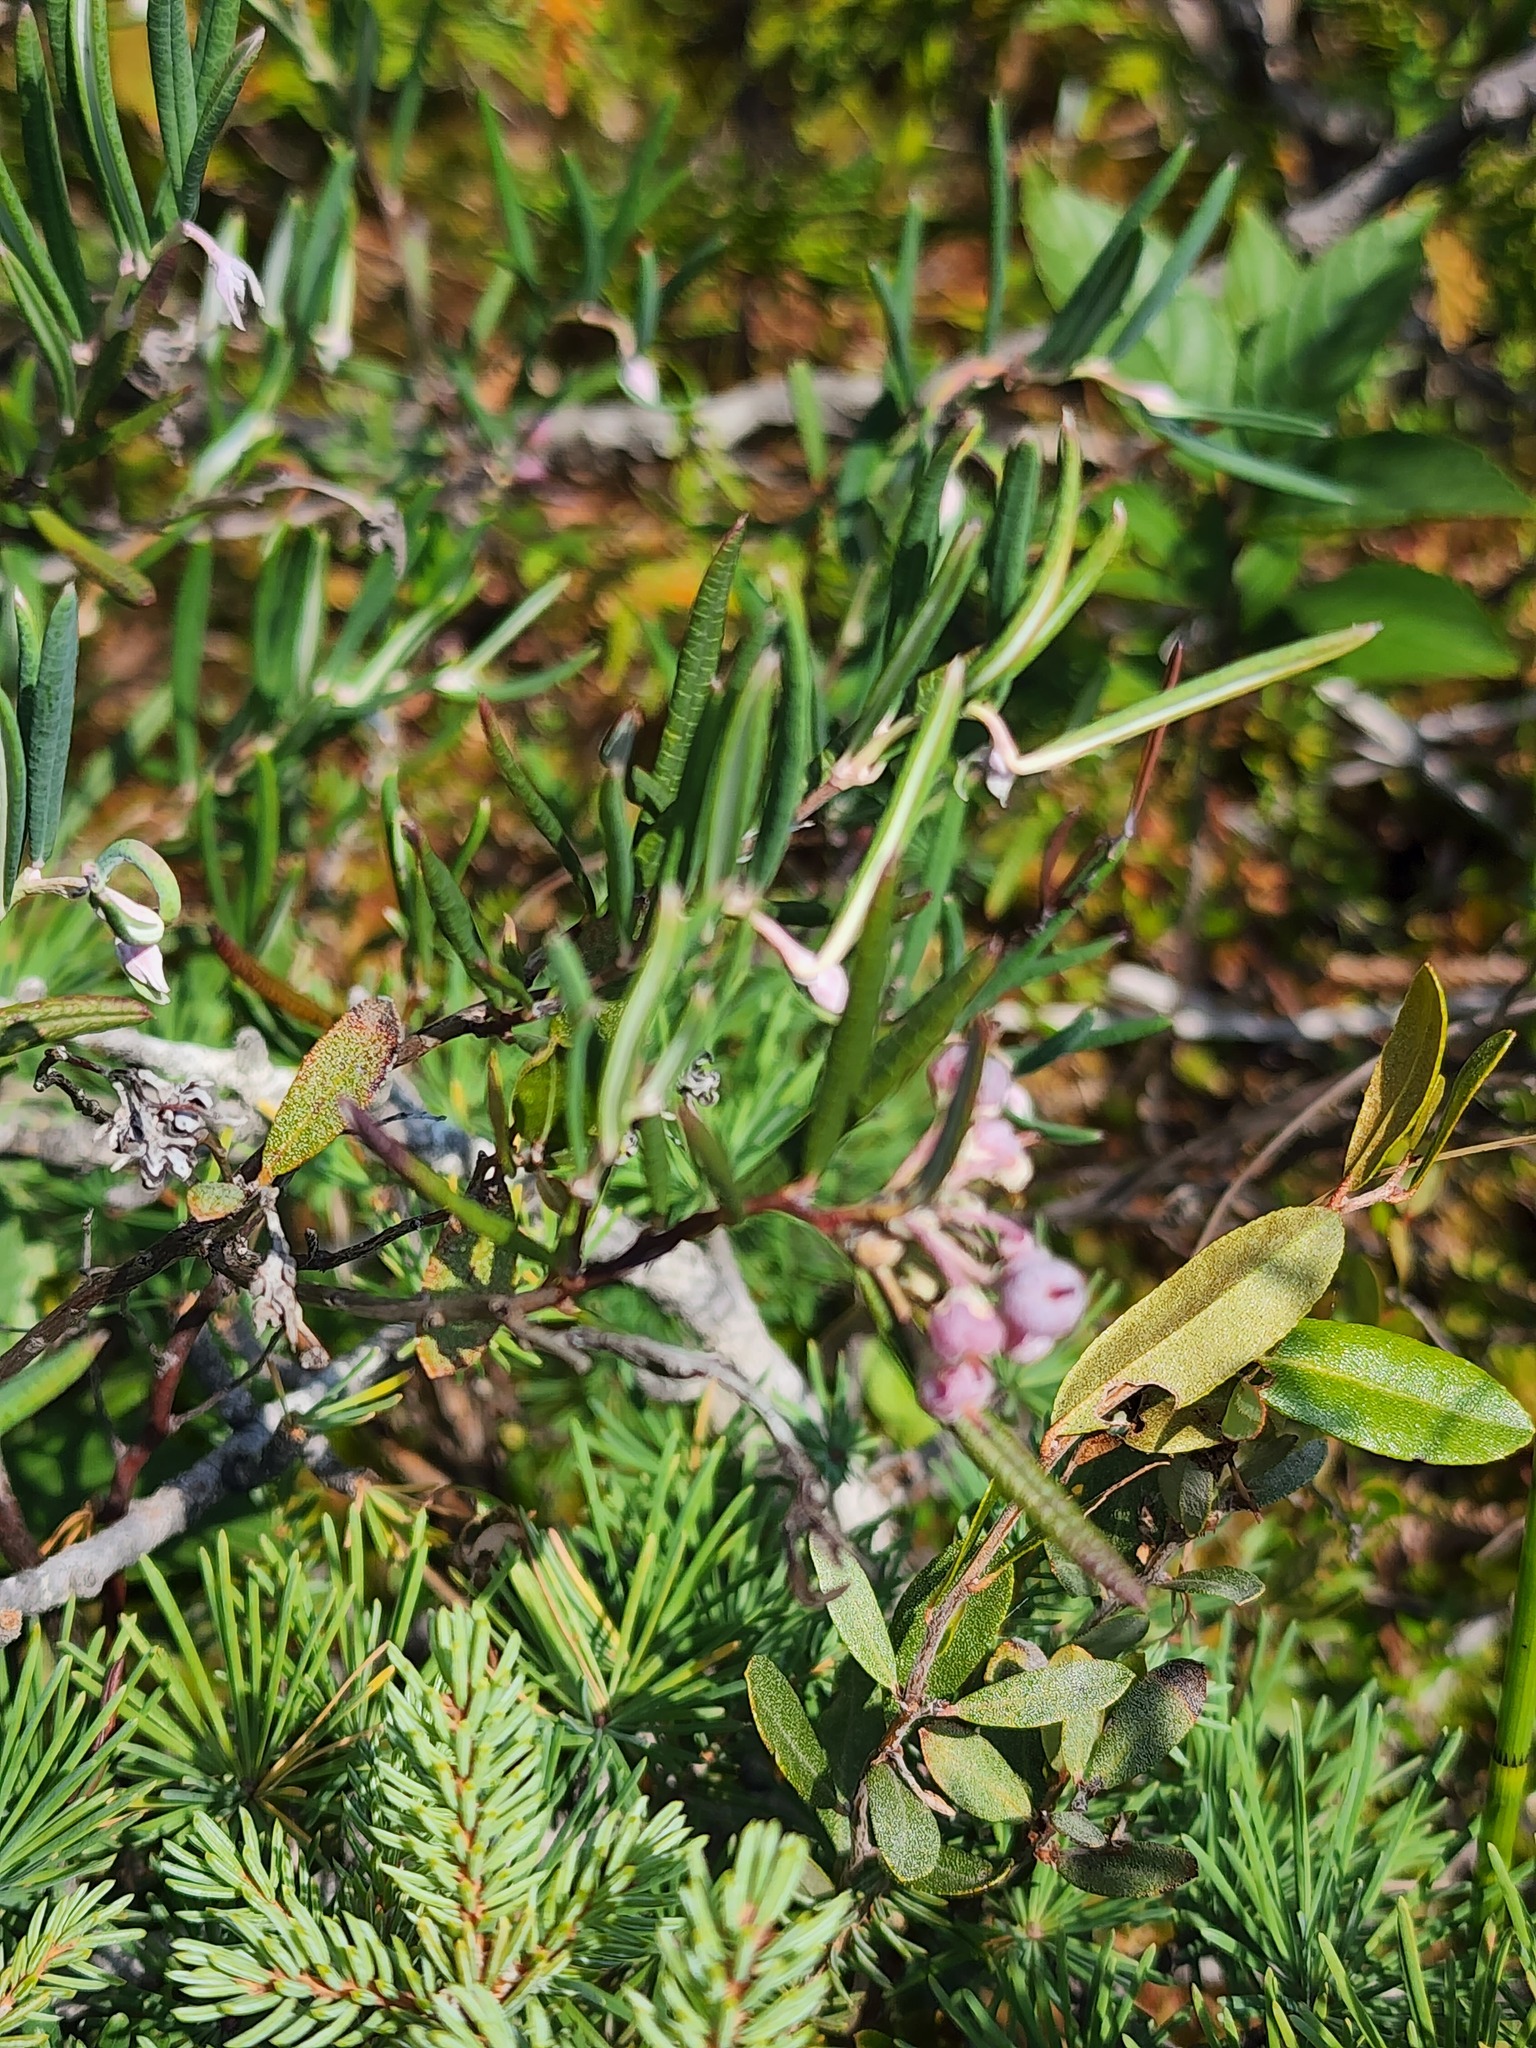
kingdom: Plantae
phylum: Tracheophyta
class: Magnoliopsida
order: Ericales
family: Ericaceae
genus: Andromeda
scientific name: Andromeda polifolia
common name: Bog-rosemary
